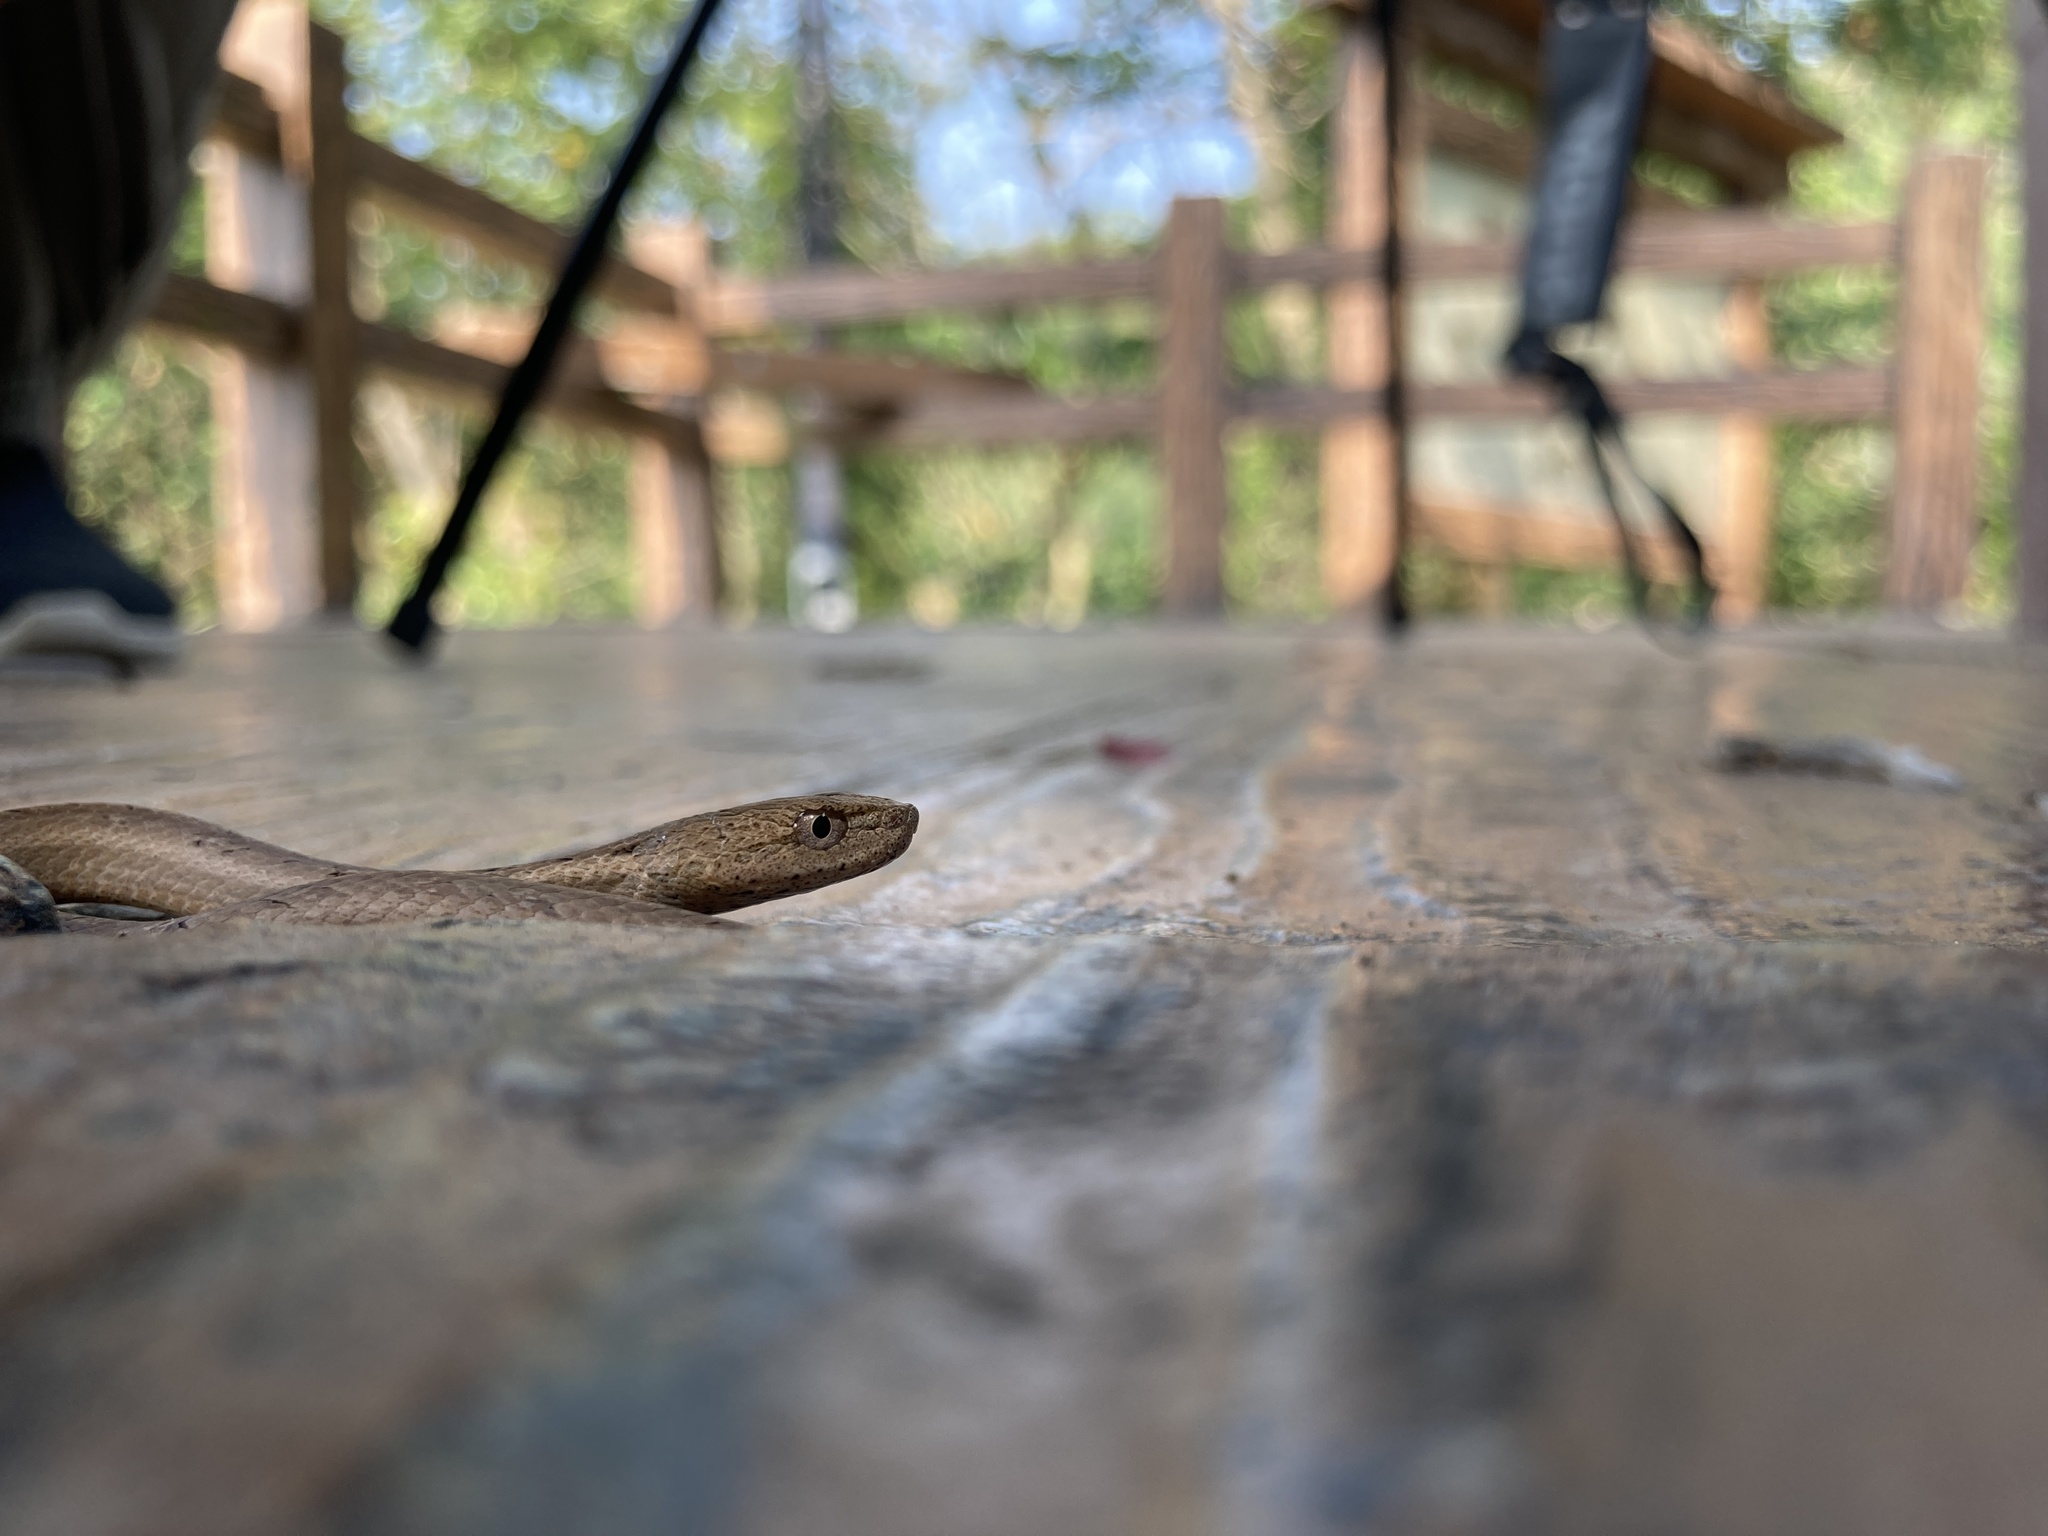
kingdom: Animalia
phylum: Chordata
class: Squamata
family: Pseudaspididae
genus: Psammodynastes
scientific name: Psammodynastes pulverulentus
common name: Common mock viper
